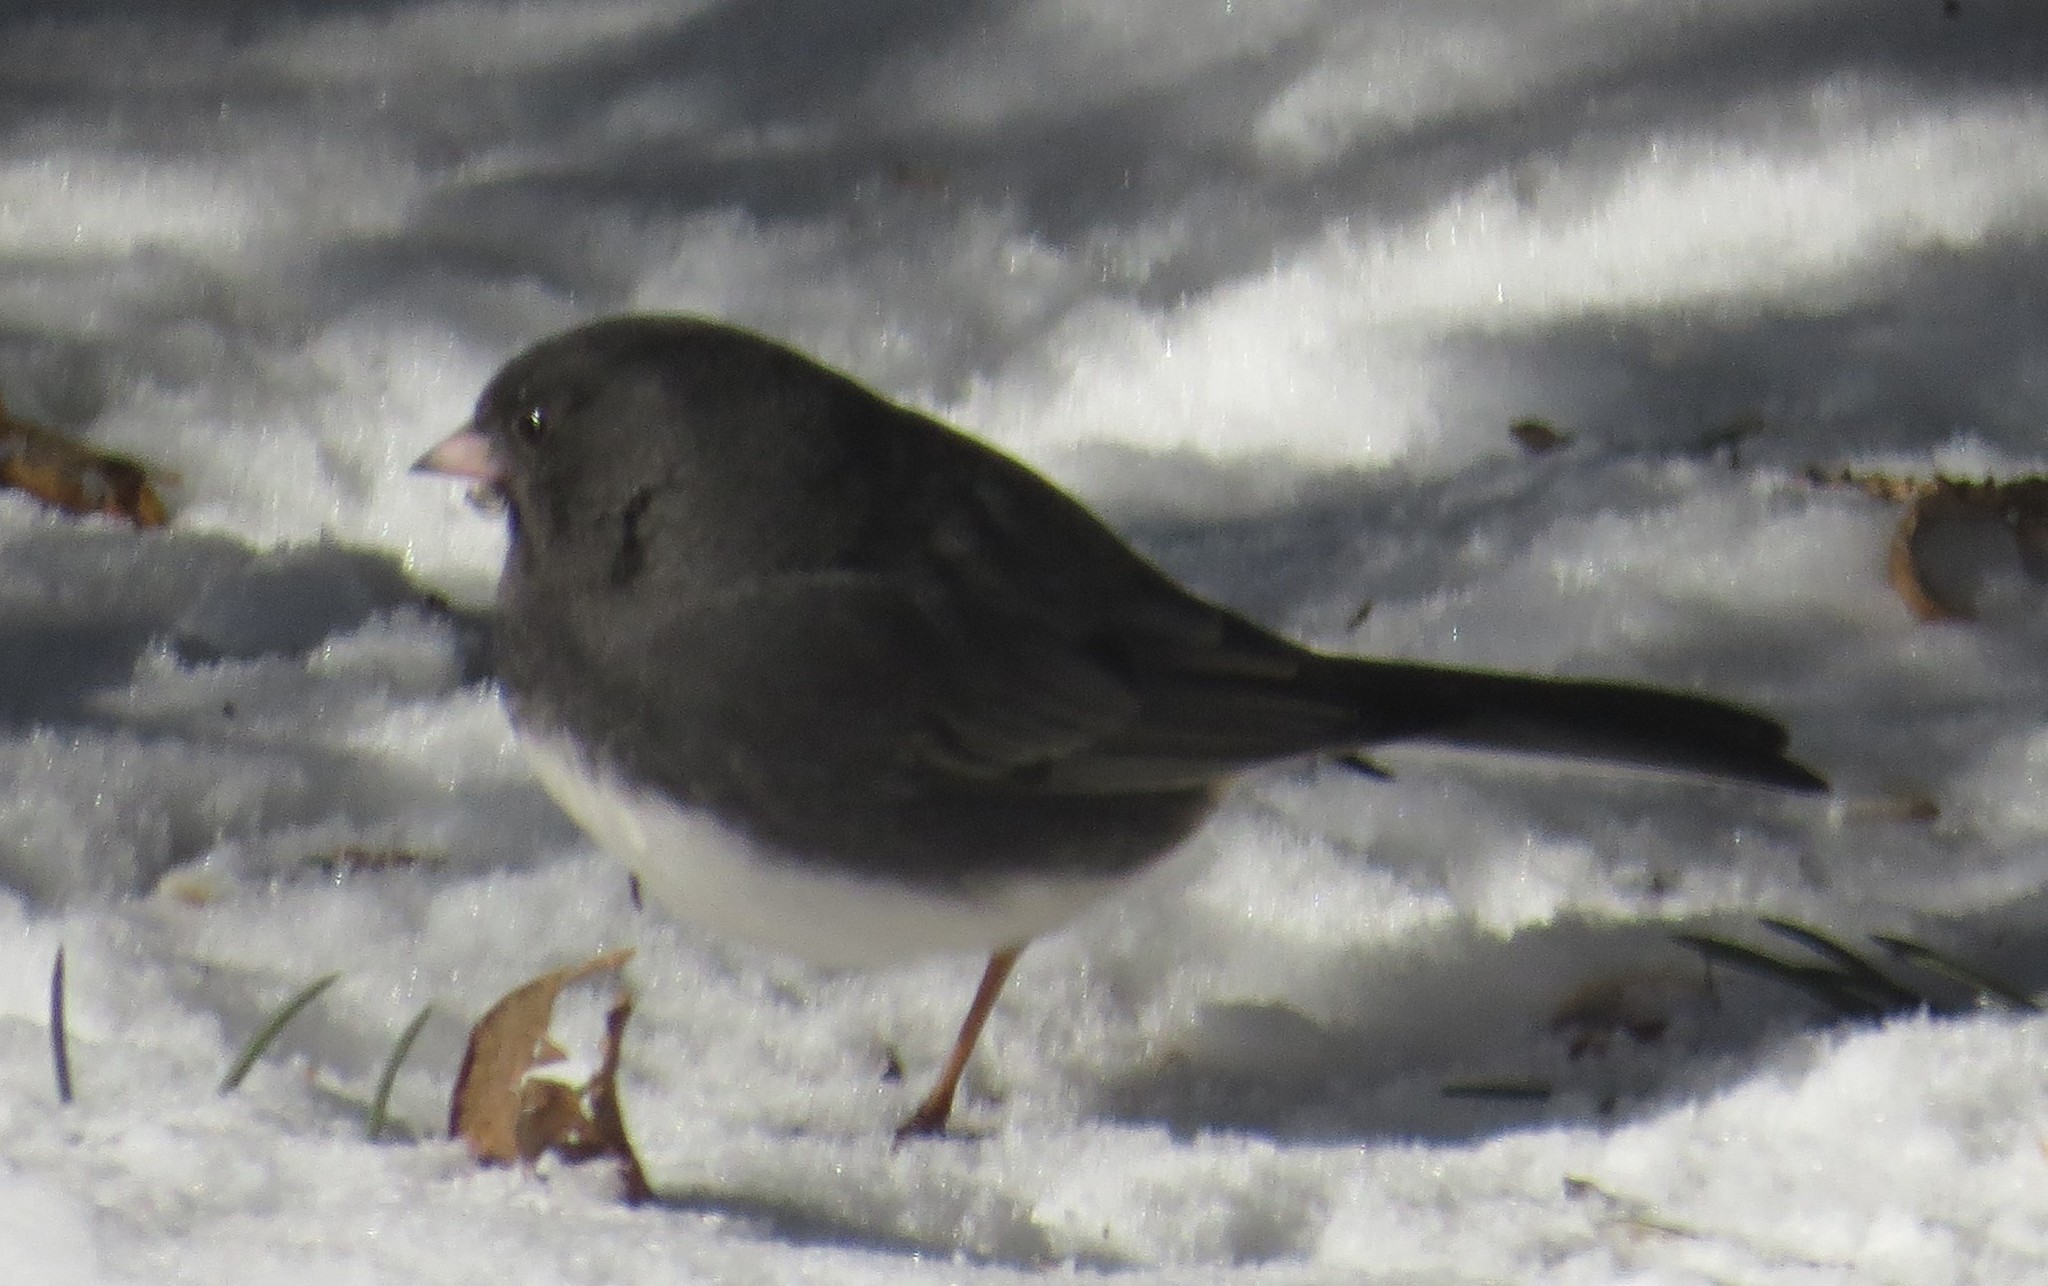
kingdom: Animalia
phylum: Chordata
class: Aves
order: Passeriformes
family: Passerellidae
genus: Junco
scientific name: Junco hyemalis
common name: Dark-eyed junco
